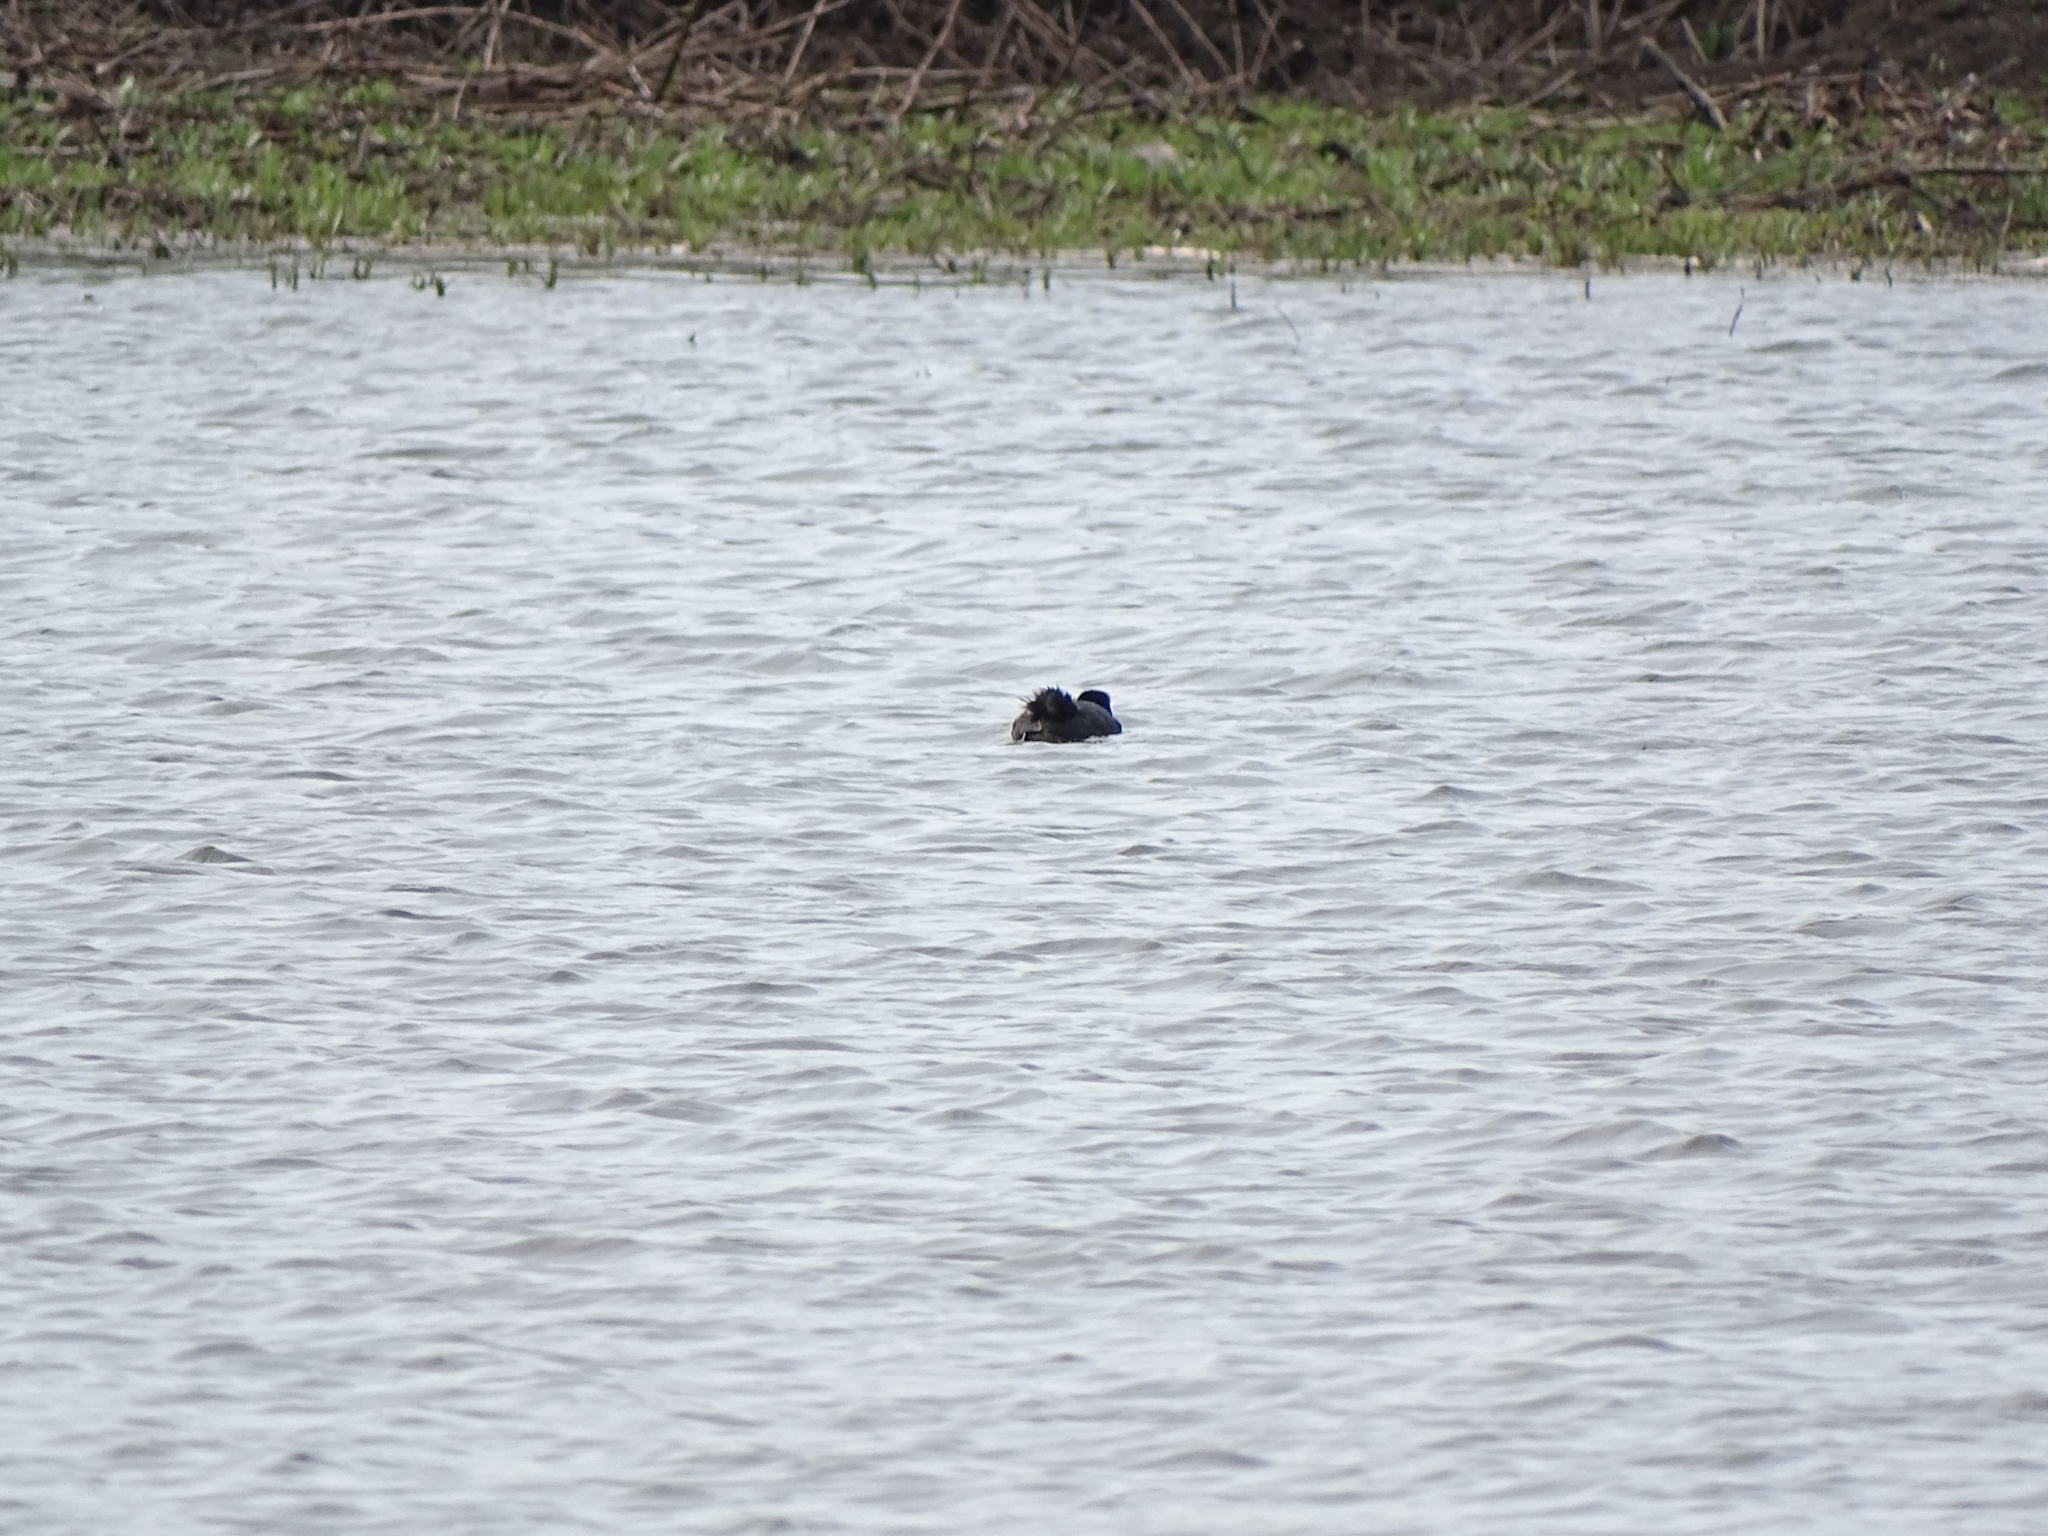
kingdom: Animalia
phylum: Chordata
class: Aves
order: Gruiformes
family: Rallidae
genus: Fulica
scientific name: Fulica atra
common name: Eurasian coot
